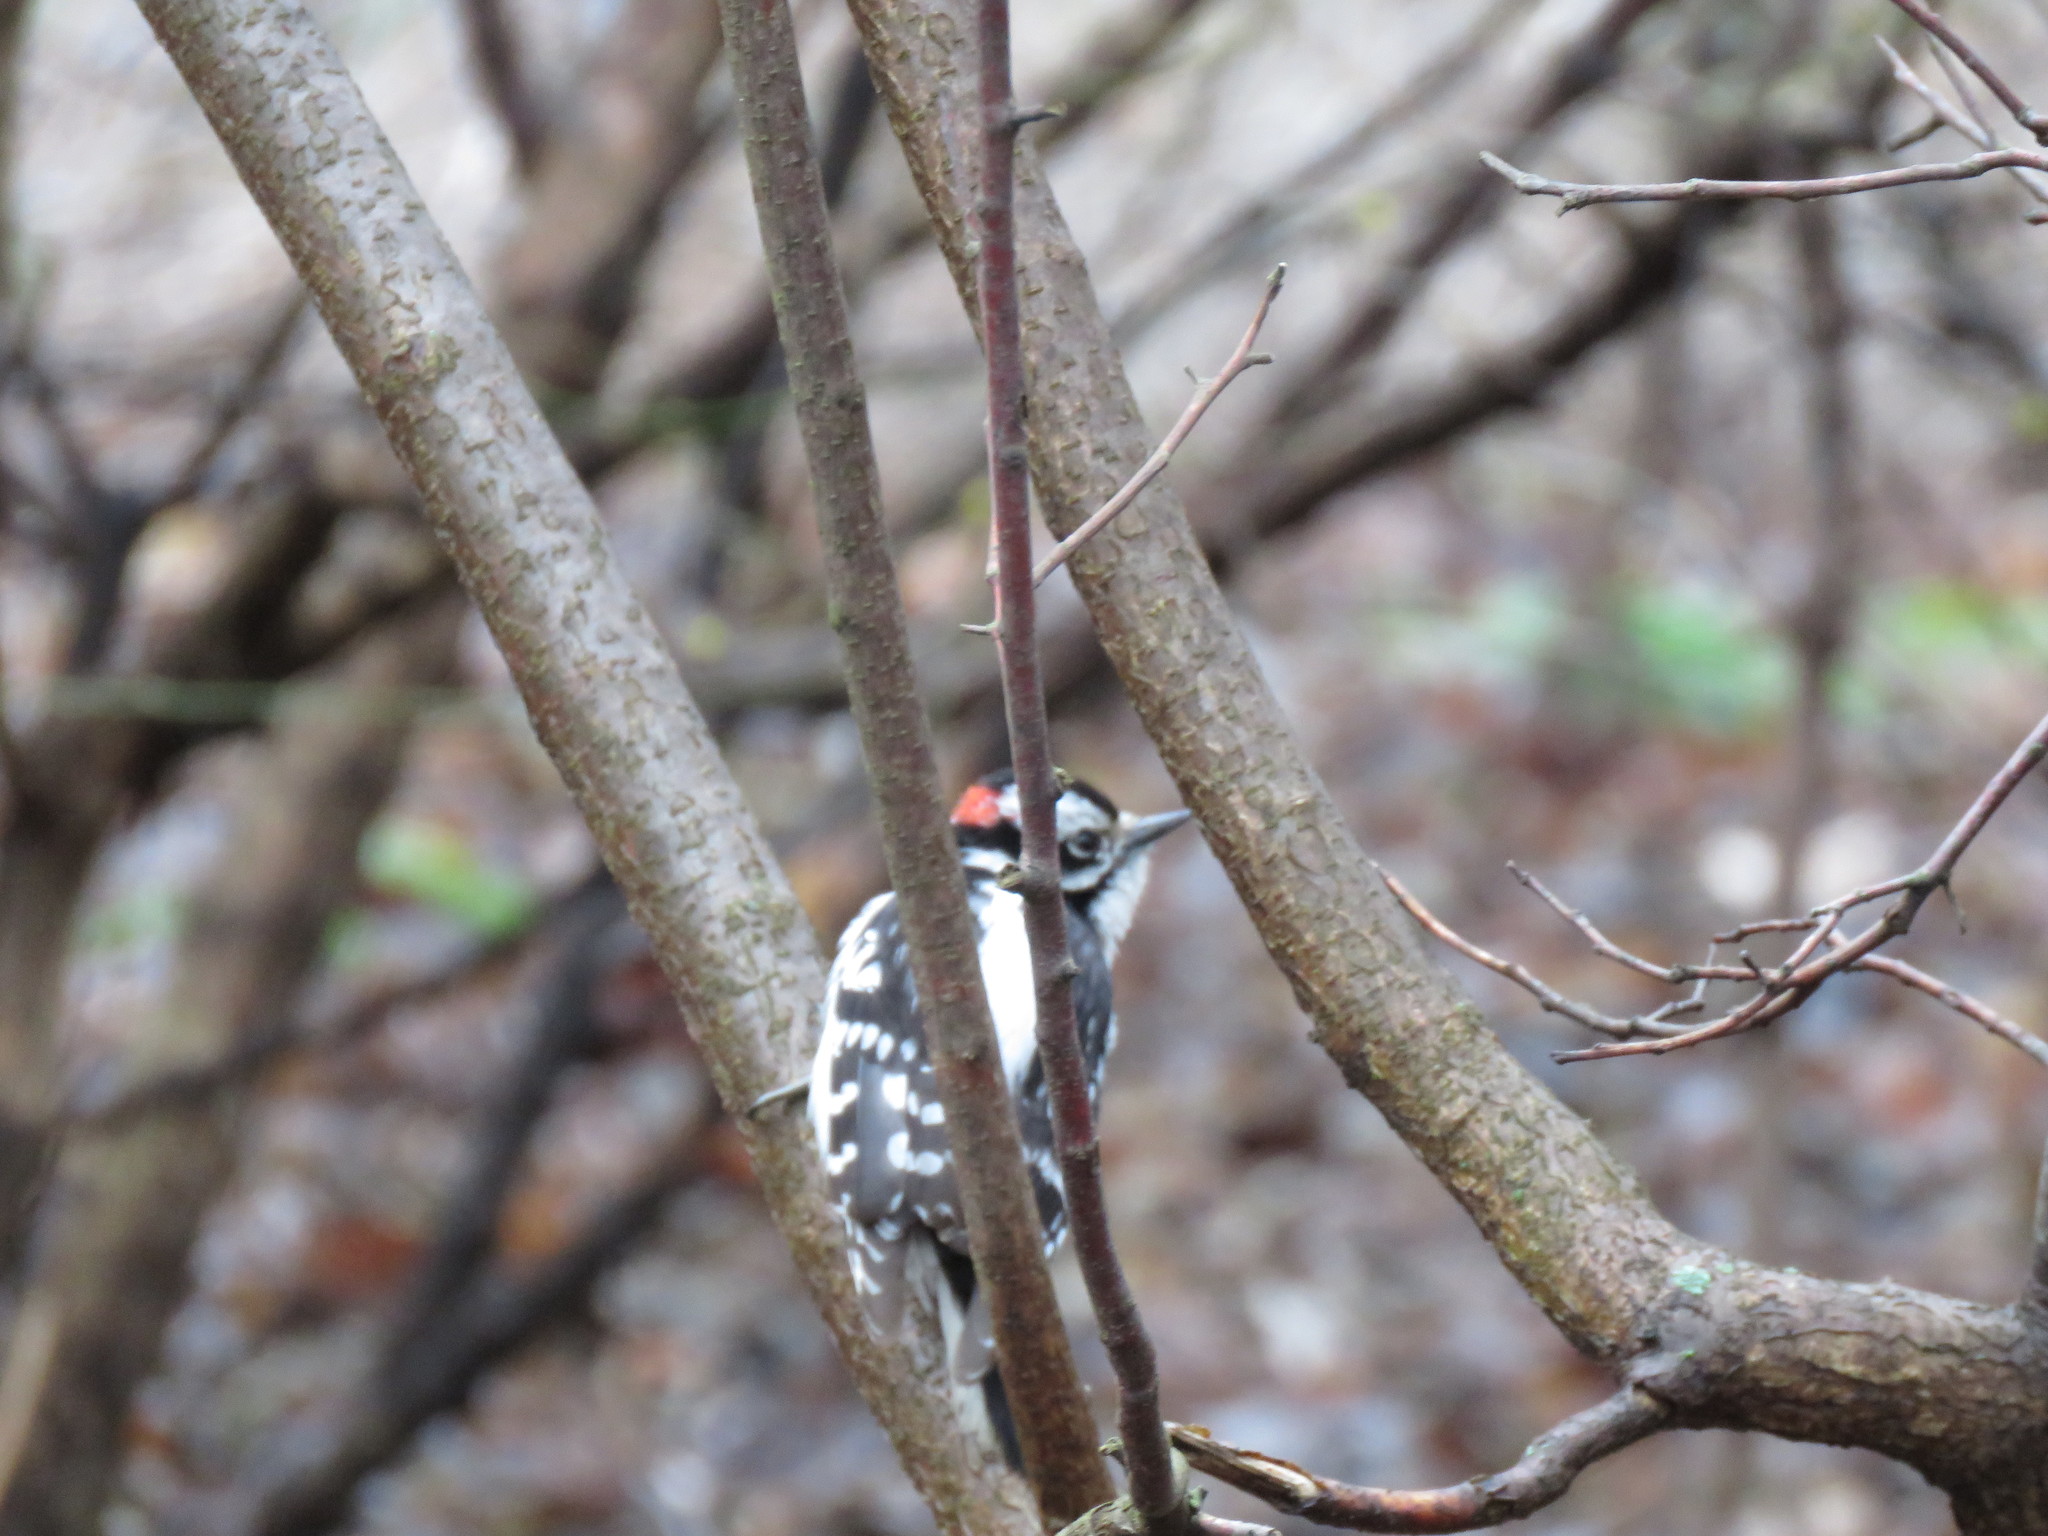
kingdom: Animalia
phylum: Chordata
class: Aves
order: Piciformes
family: Picidae
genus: Dryobates
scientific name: Dryobates pubescens
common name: Downy woodpecker
